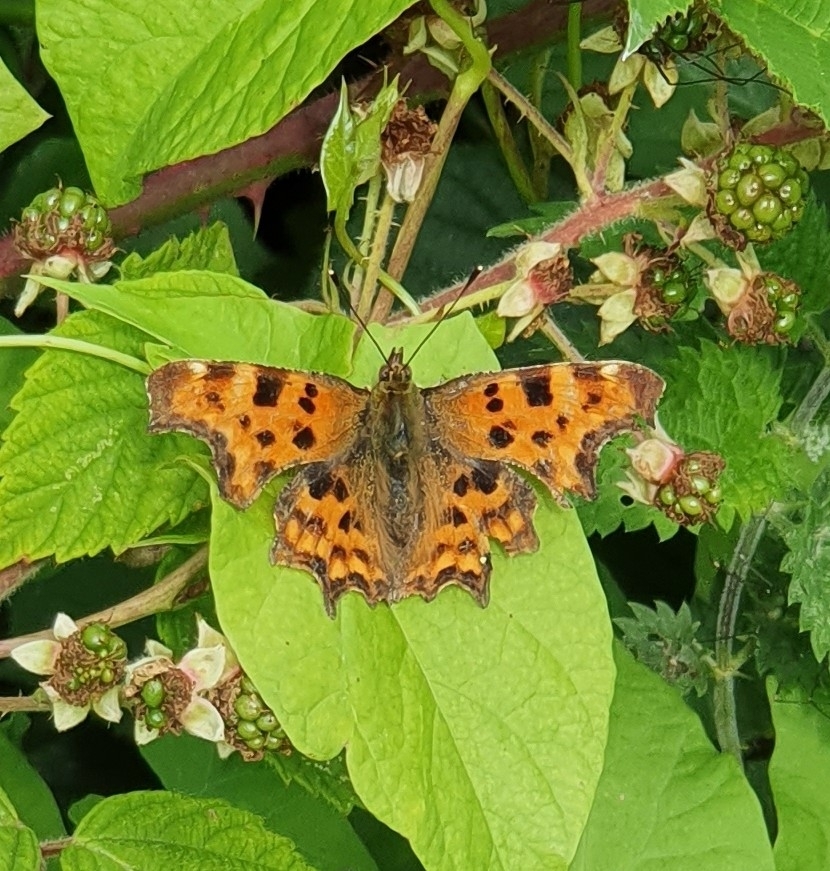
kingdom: Animalia
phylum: Arthropoda
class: Insecta
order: Lepidoptera
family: Nymphalidae
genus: Polygonia
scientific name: Polygonia c-album
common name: Comma
